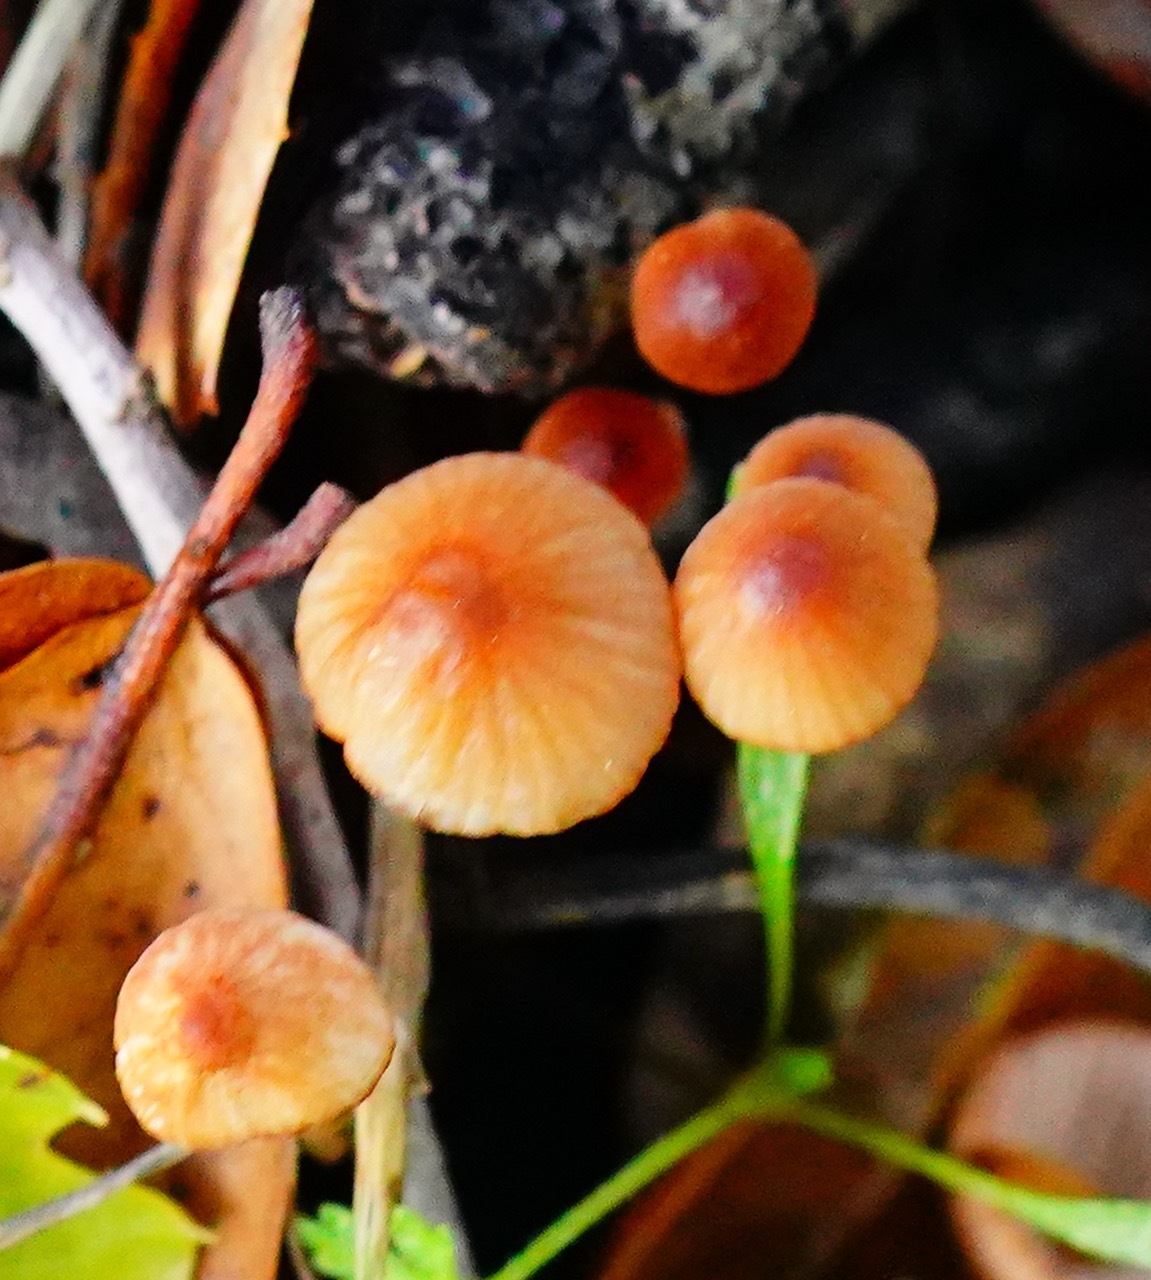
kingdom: Fungi
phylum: Basidiomycota
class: Agaricomycetes
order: Agaricales
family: Mycenaceae
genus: Mycena
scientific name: Mycena
